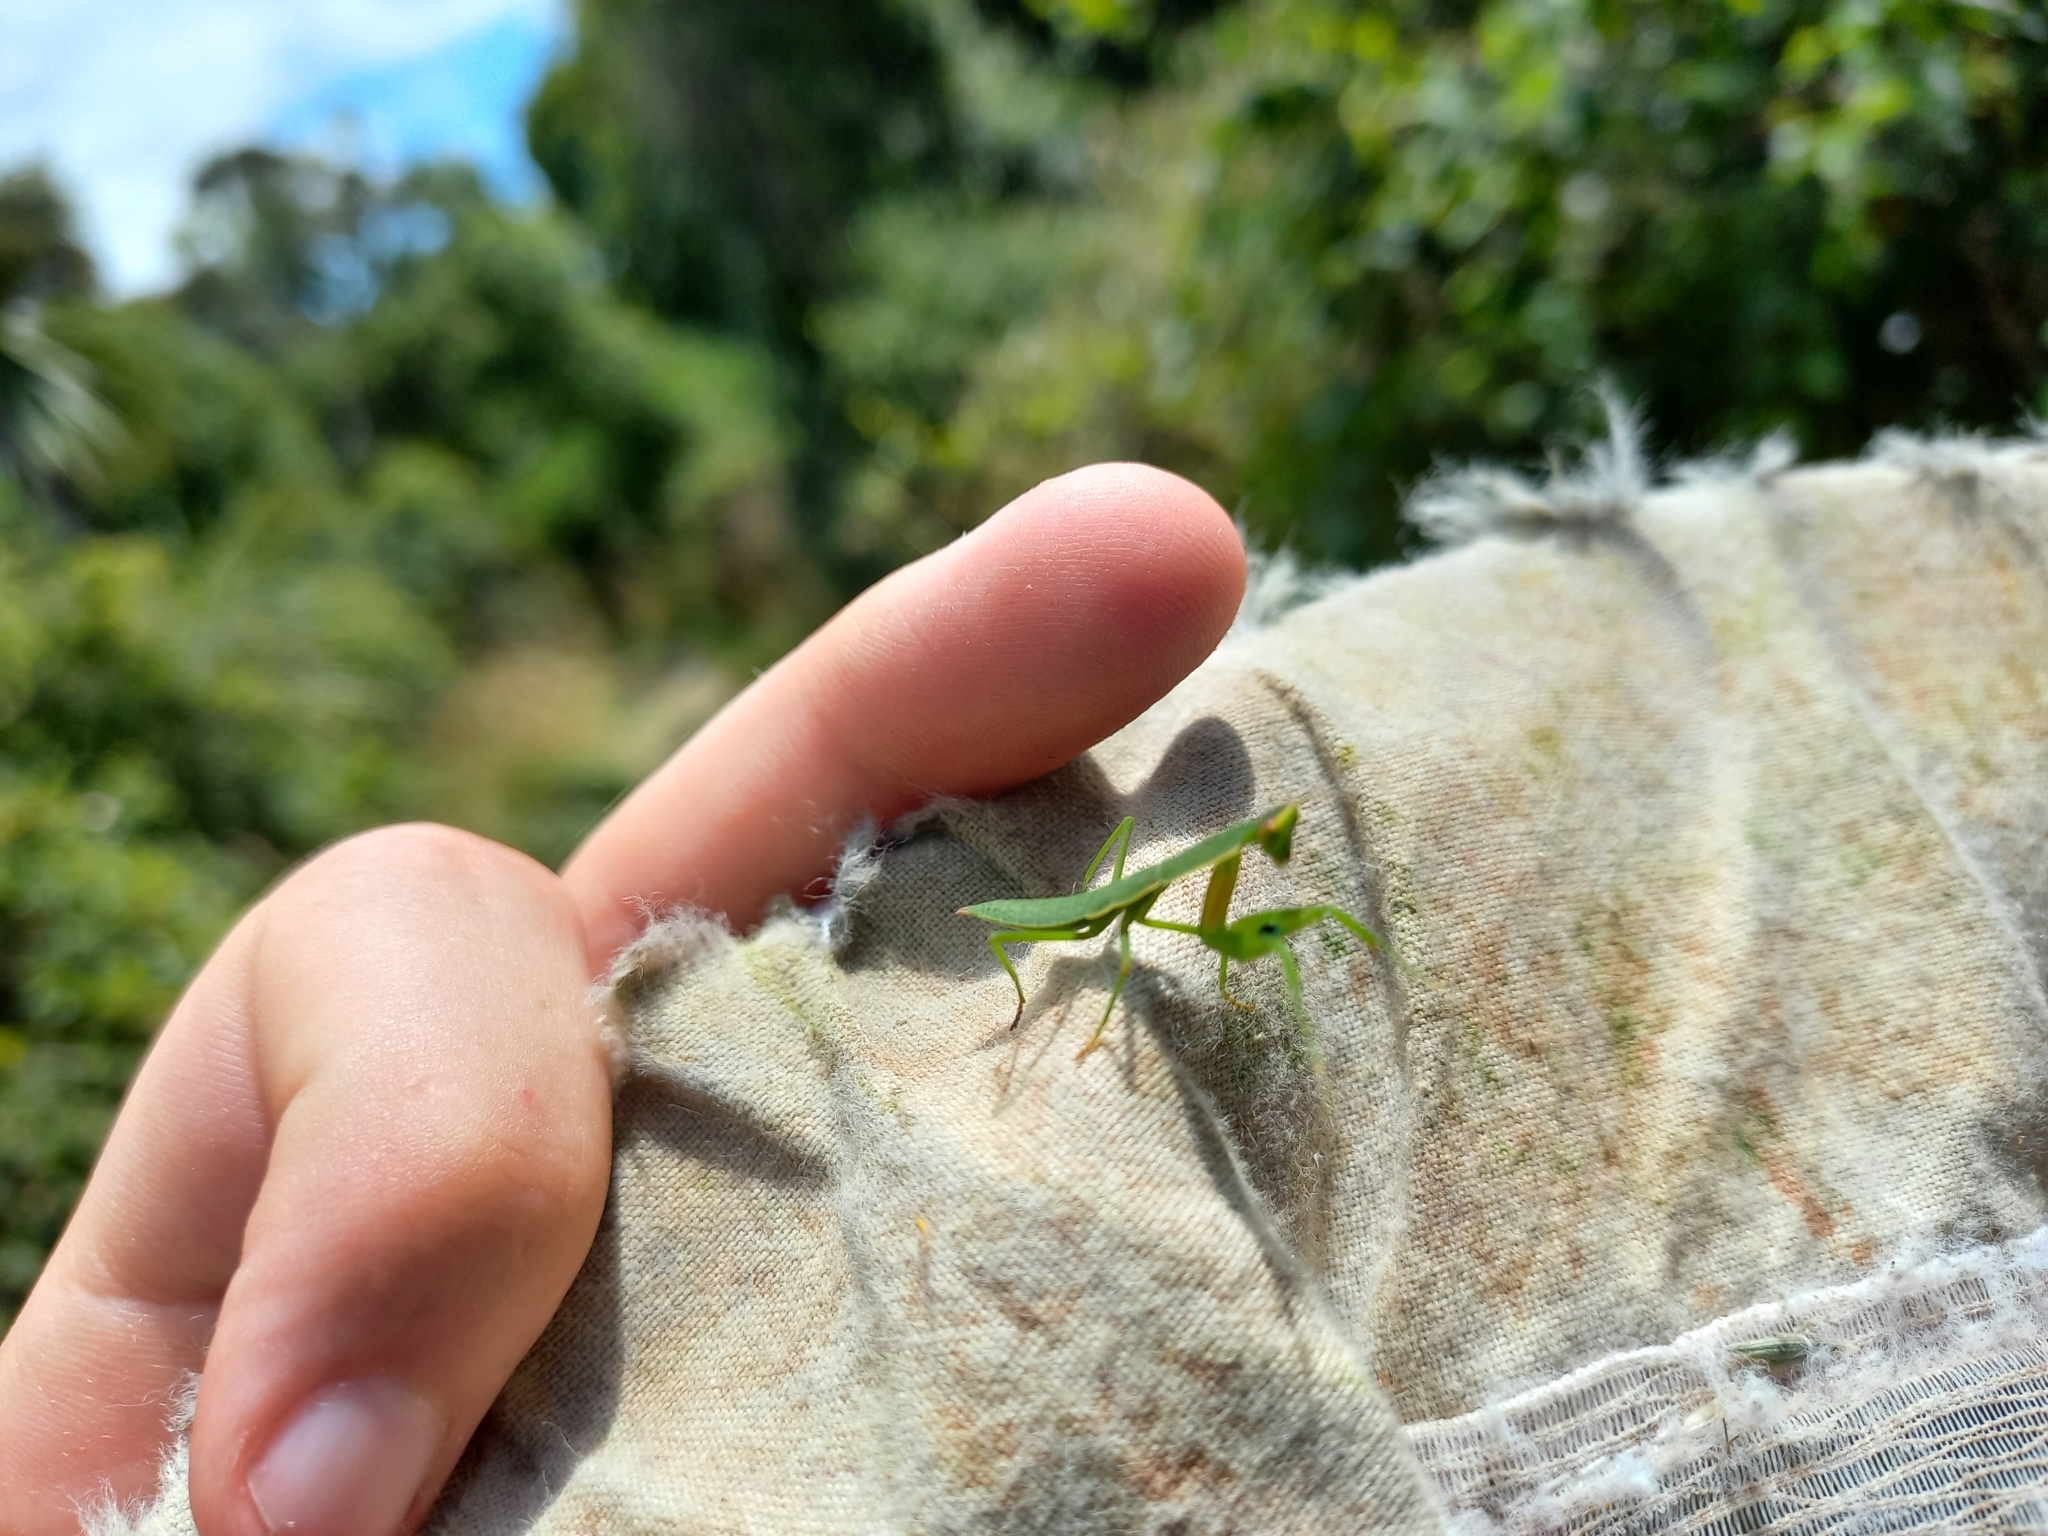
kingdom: Animalia
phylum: Arthropoda
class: Insecta
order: Mantodea
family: Mantidae
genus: Orthodera
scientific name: Orthodera novaezealandiae
